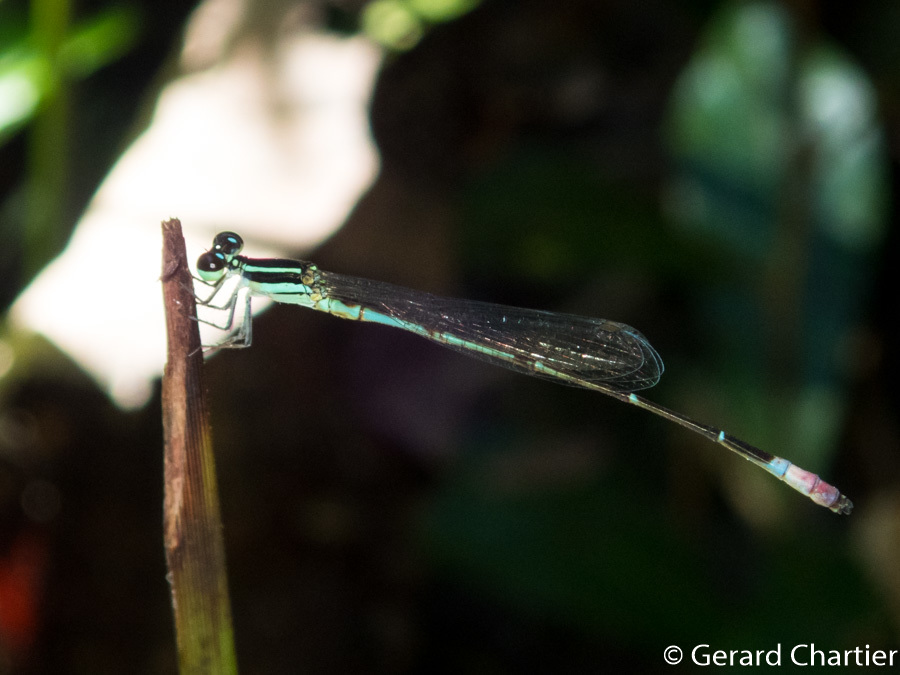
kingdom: Animalia
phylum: Arthropoda
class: Insecta
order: Odonata
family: Coenagrionidae
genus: Argiocnemis
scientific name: Argiocnemis rubescens
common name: Red-tipped shadefly
